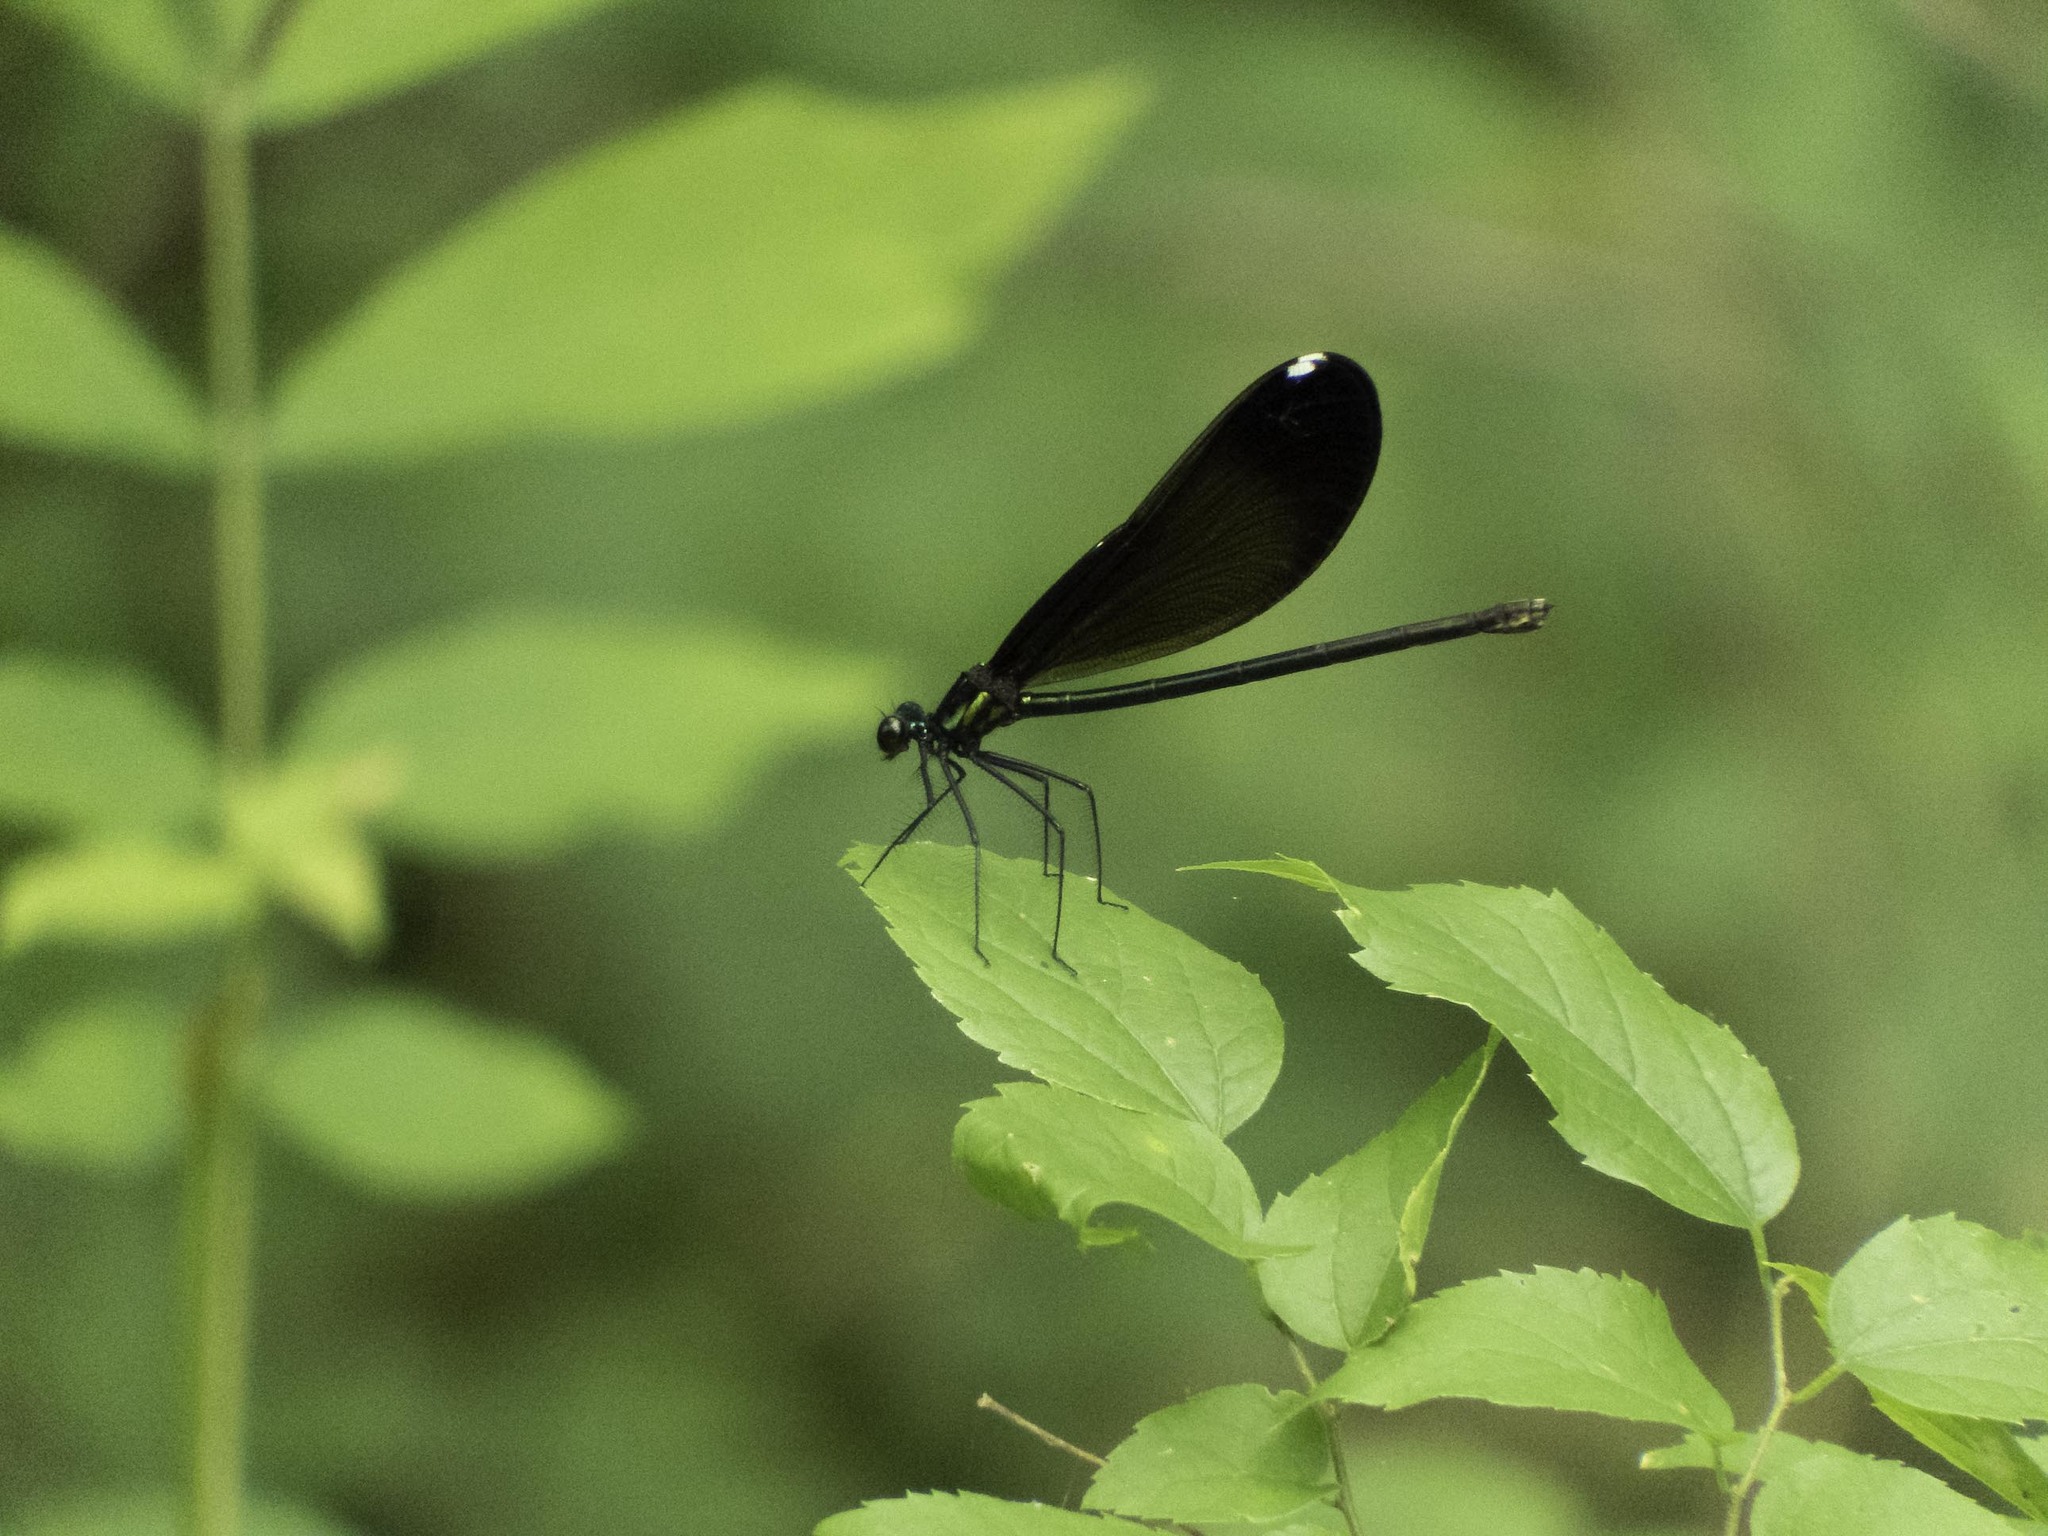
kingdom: Animalia
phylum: Arthropoda
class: Insecta
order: Odonata
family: Calopterygidae
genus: Calopteryx
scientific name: Calopteryx maculata
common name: Ebony jewelwing
